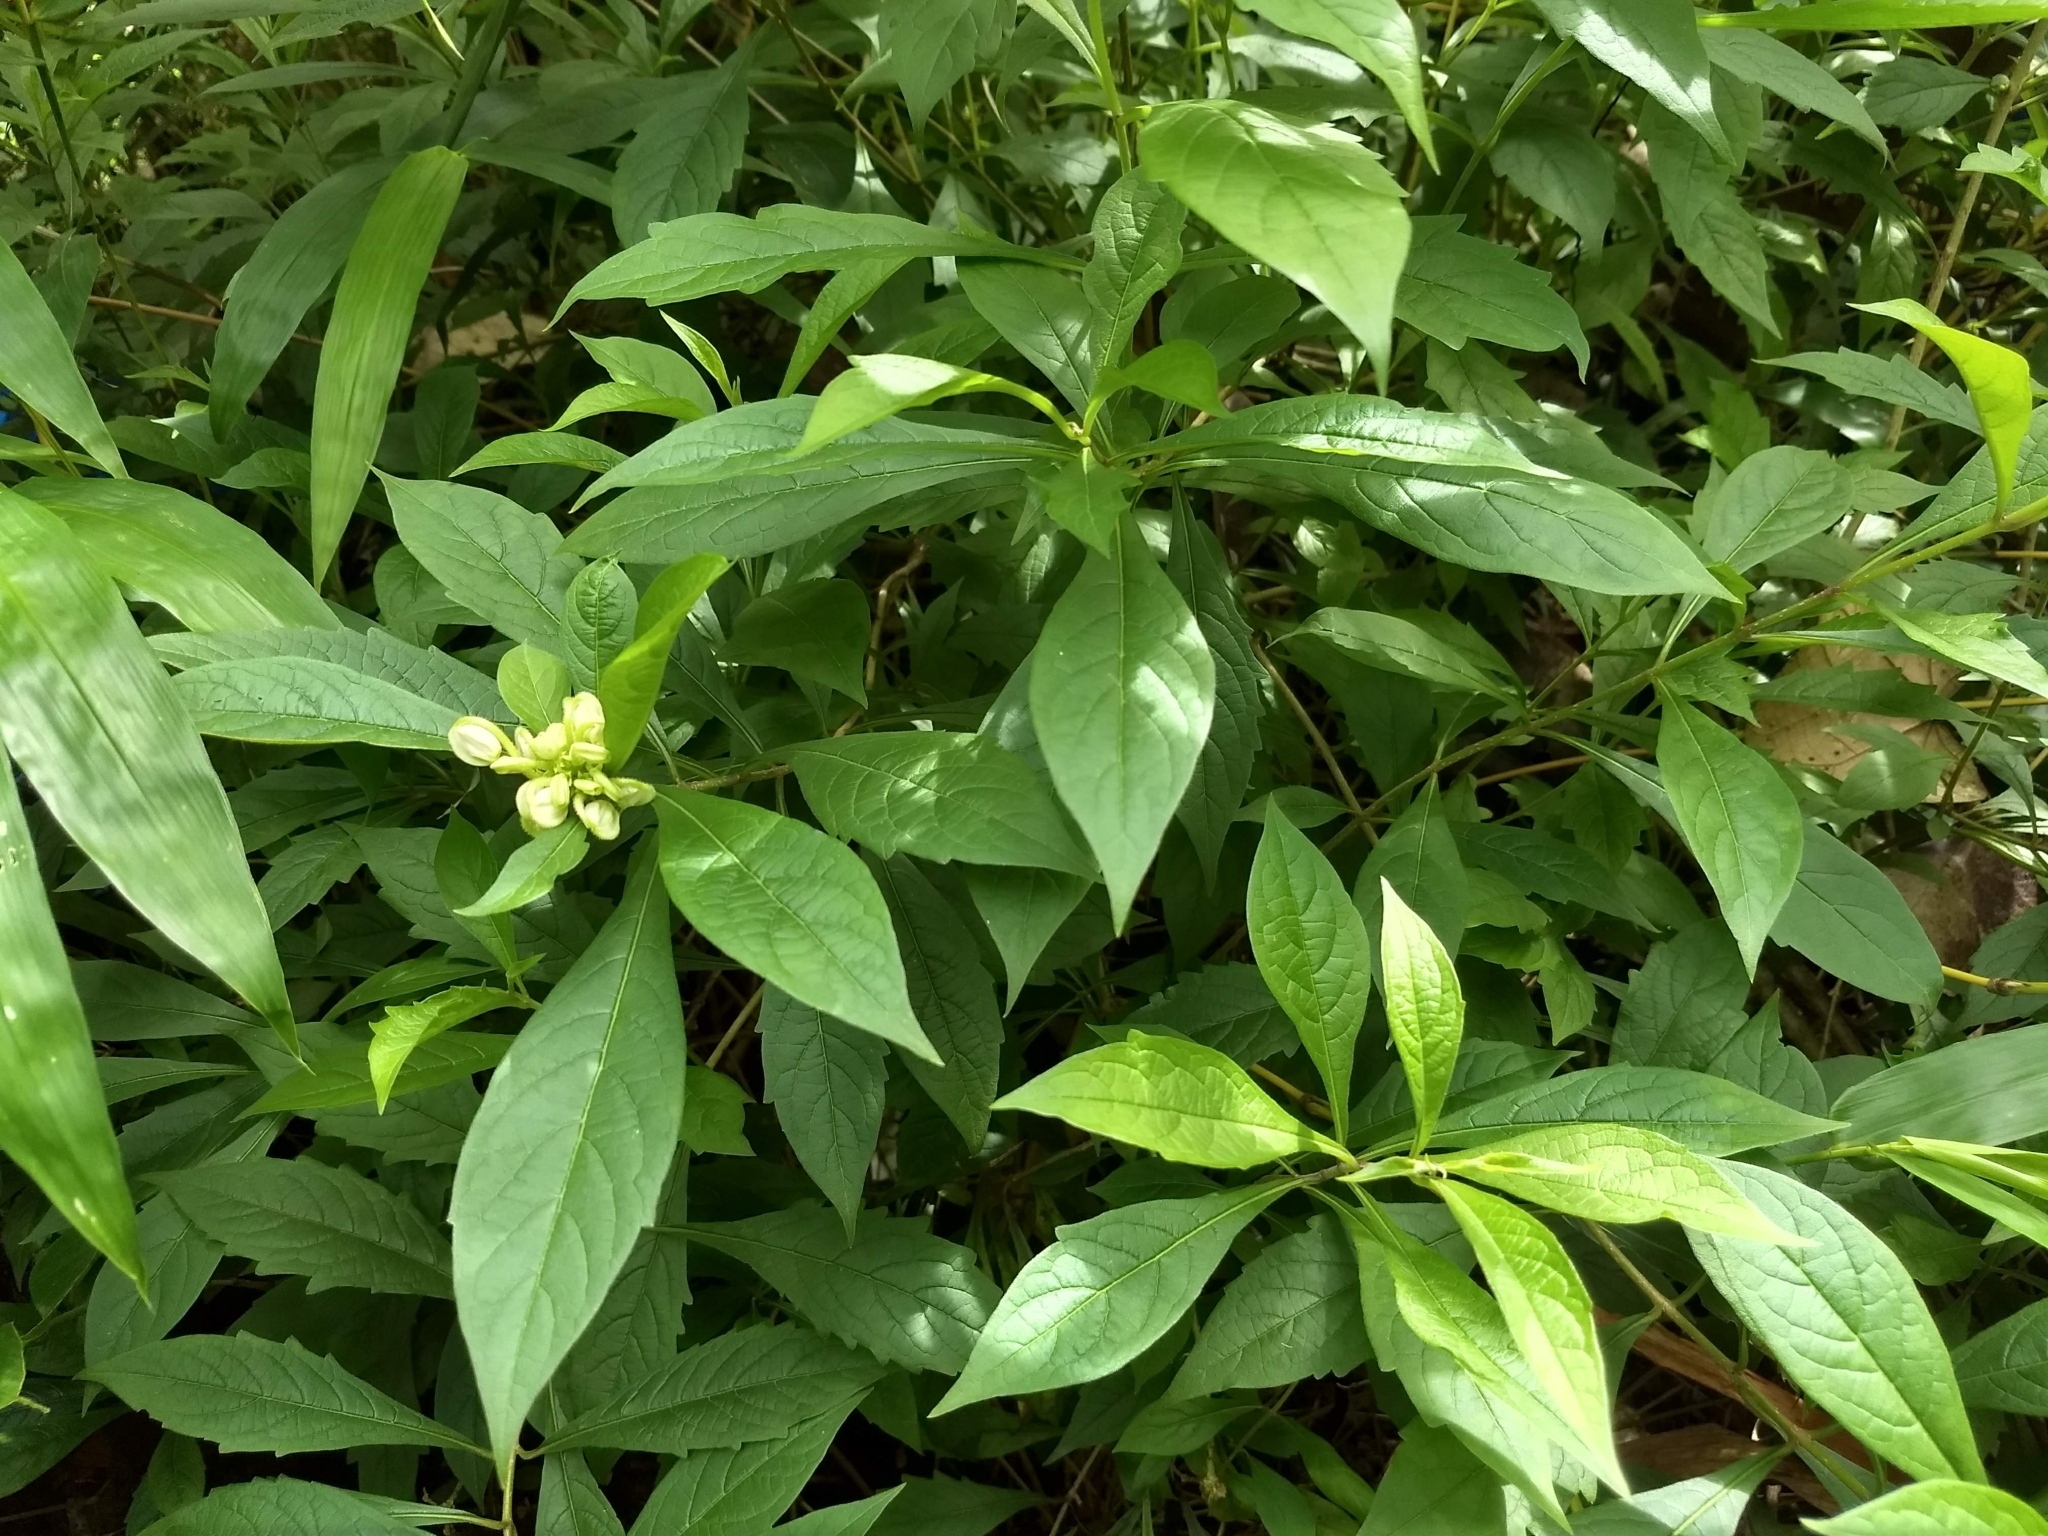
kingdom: Plantae
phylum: Tracheophyta
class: Magnoliopsida
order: Lamiales
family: Lamiaceae
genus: Rotheca
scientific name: Rotheca microphylla
